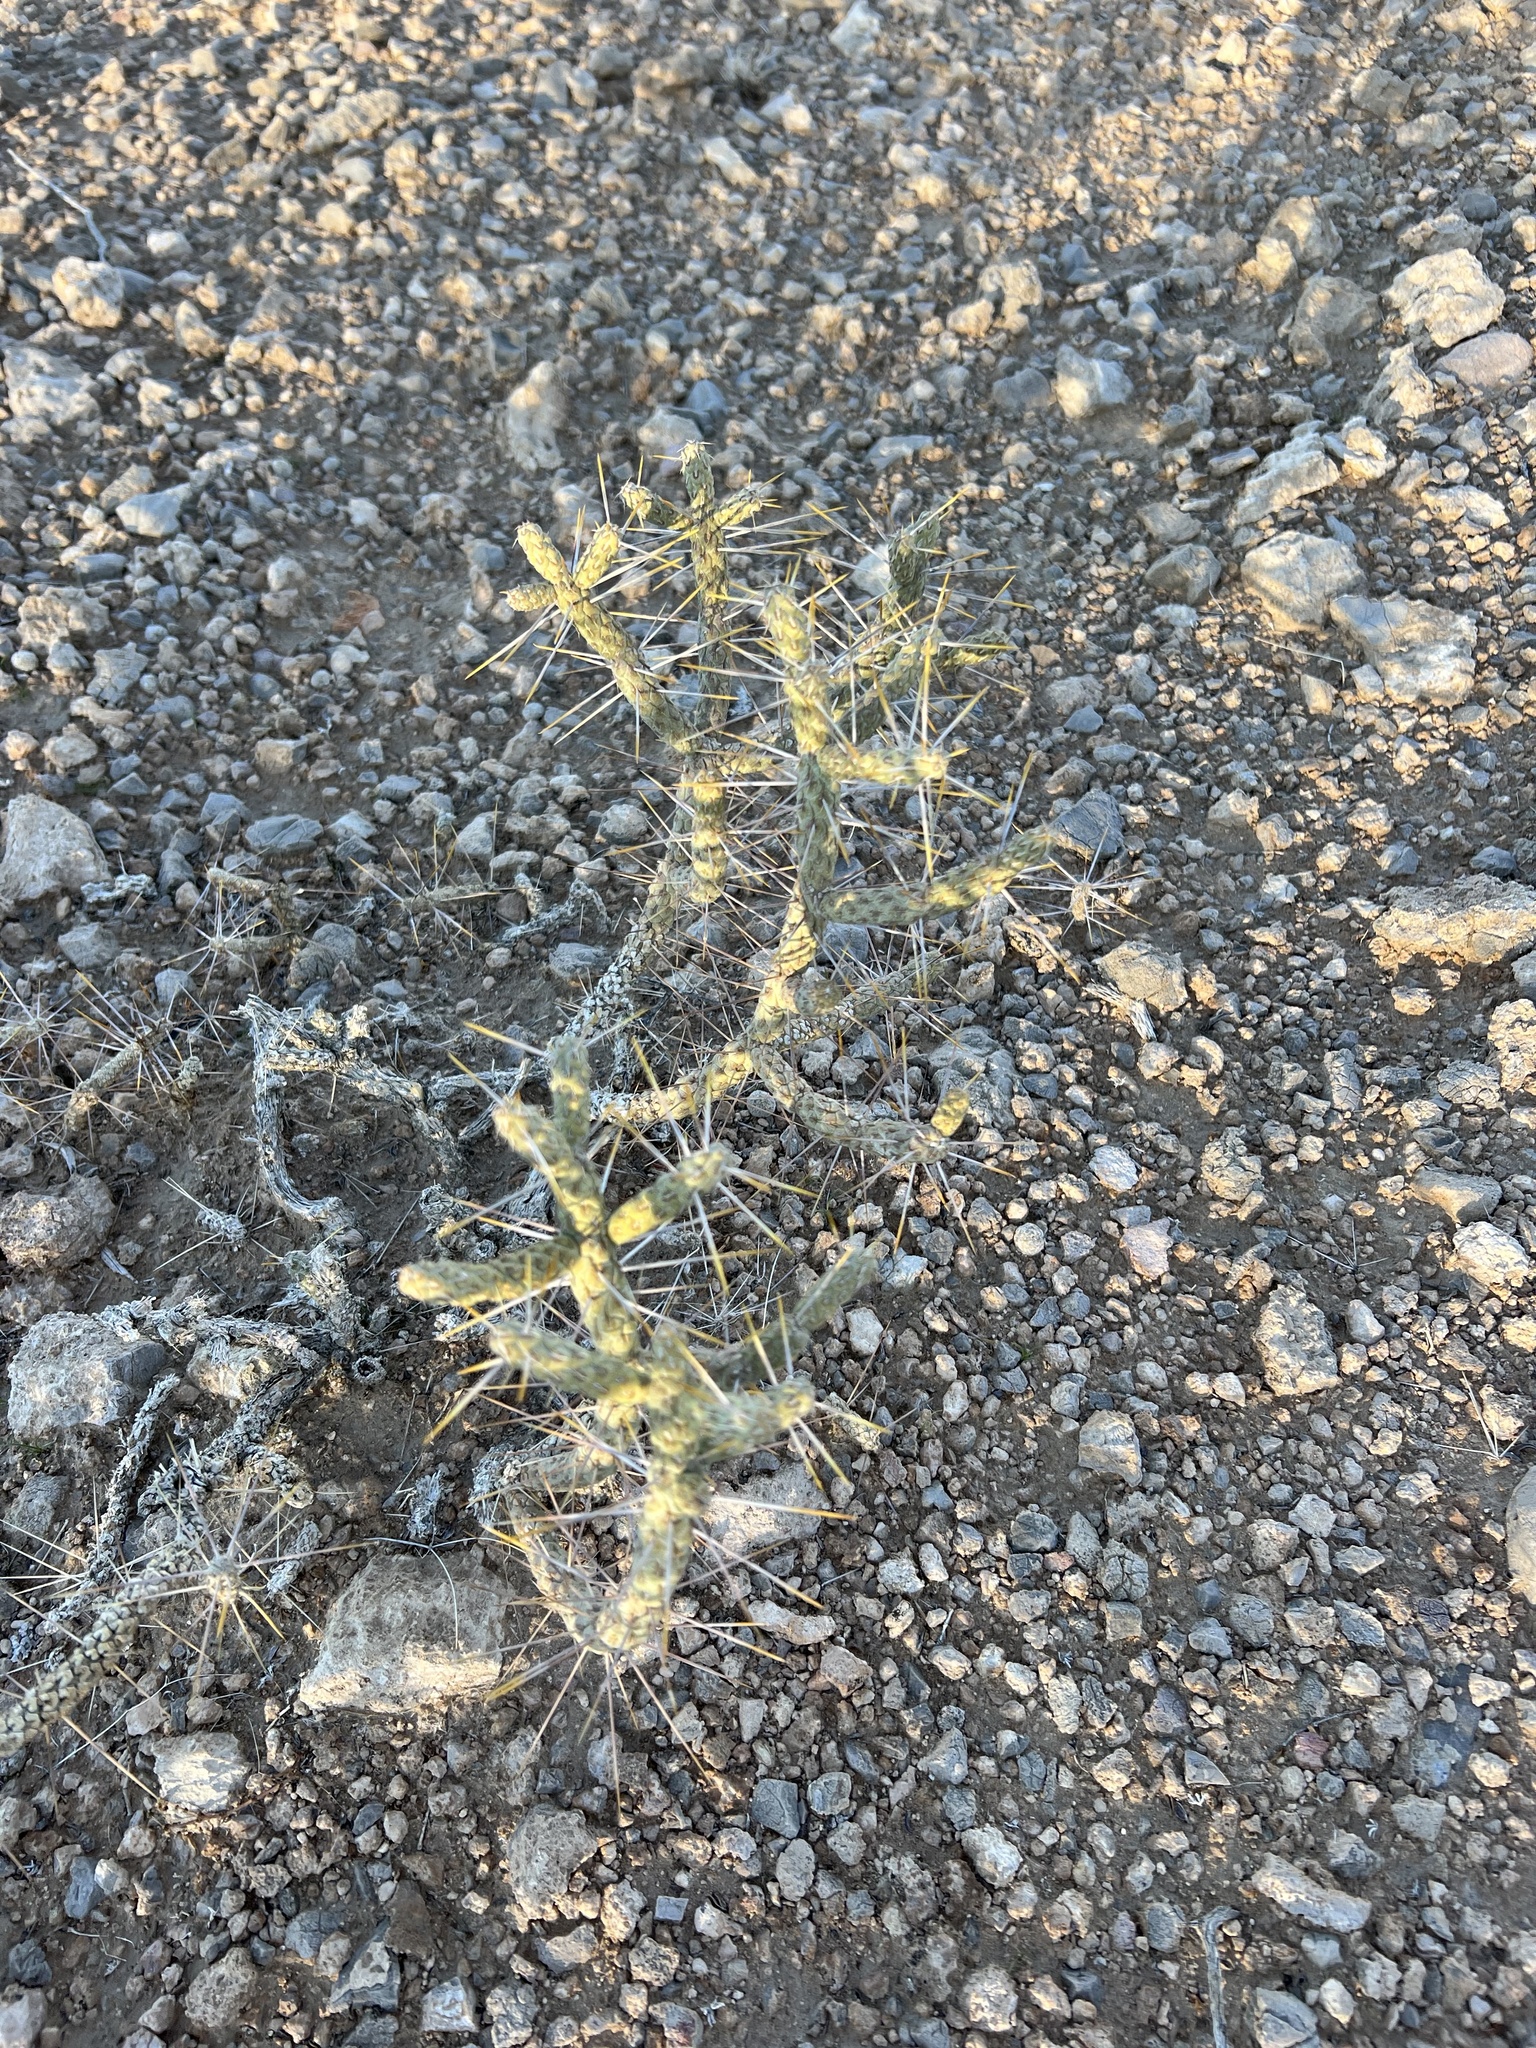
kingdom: Plantae
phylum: Tracheophyta
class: Magnoliopsida
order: Caryophyllales
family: Cactaceae
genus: Cylindropuntia
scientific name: Cylindropuntia ramosissima
